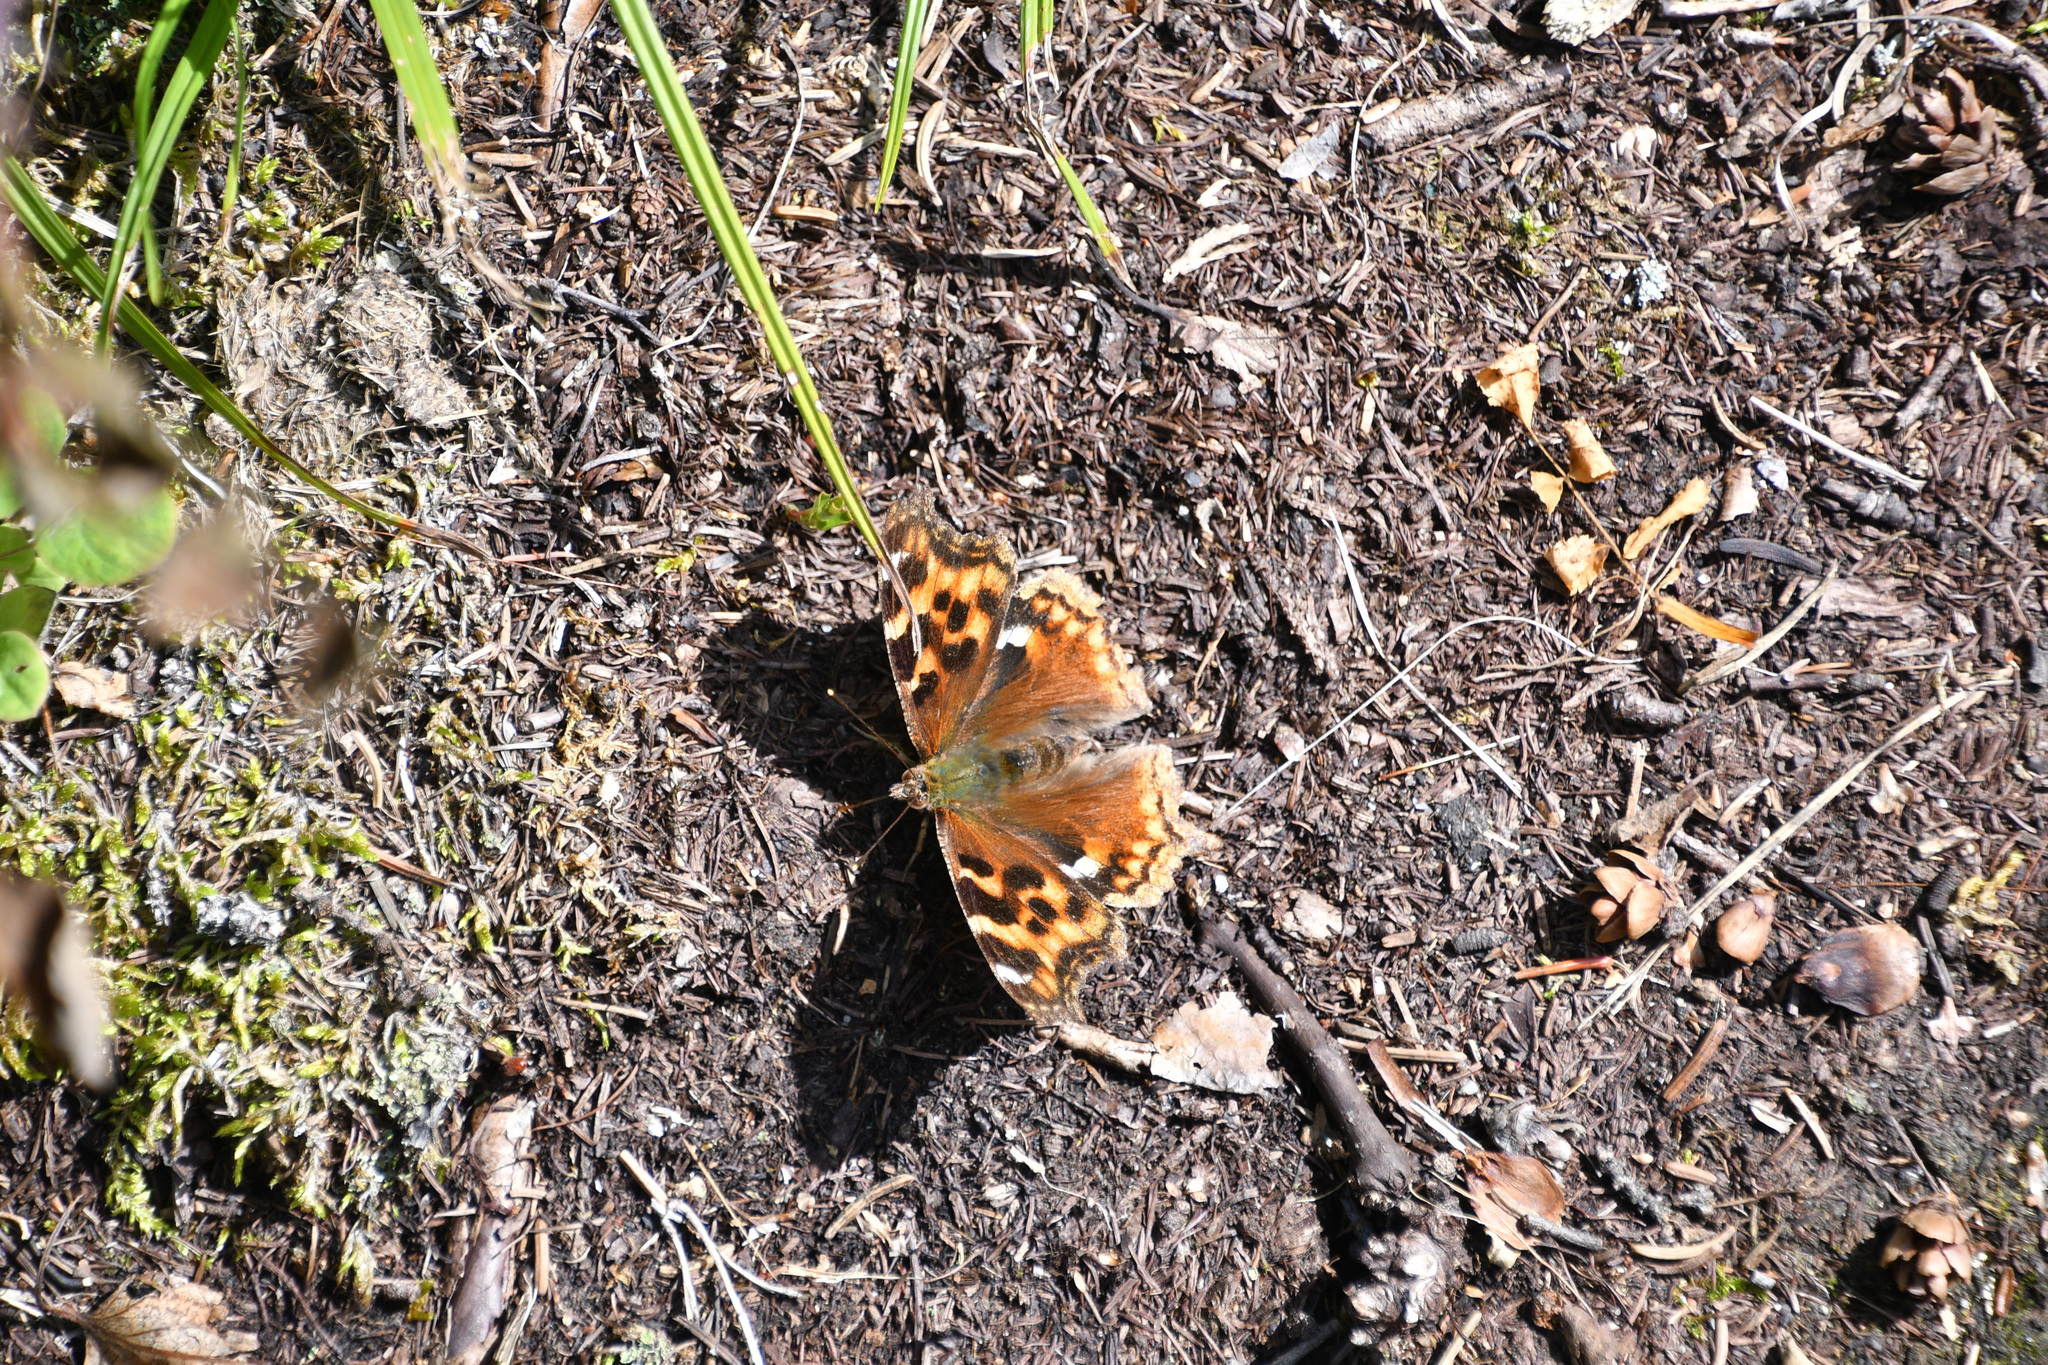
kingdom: Animalia
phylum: Arthropoda
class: Insecta
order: Lepidoptera
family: Nymphalidae
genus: Polygonia
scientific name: Polygonia vaualbum
